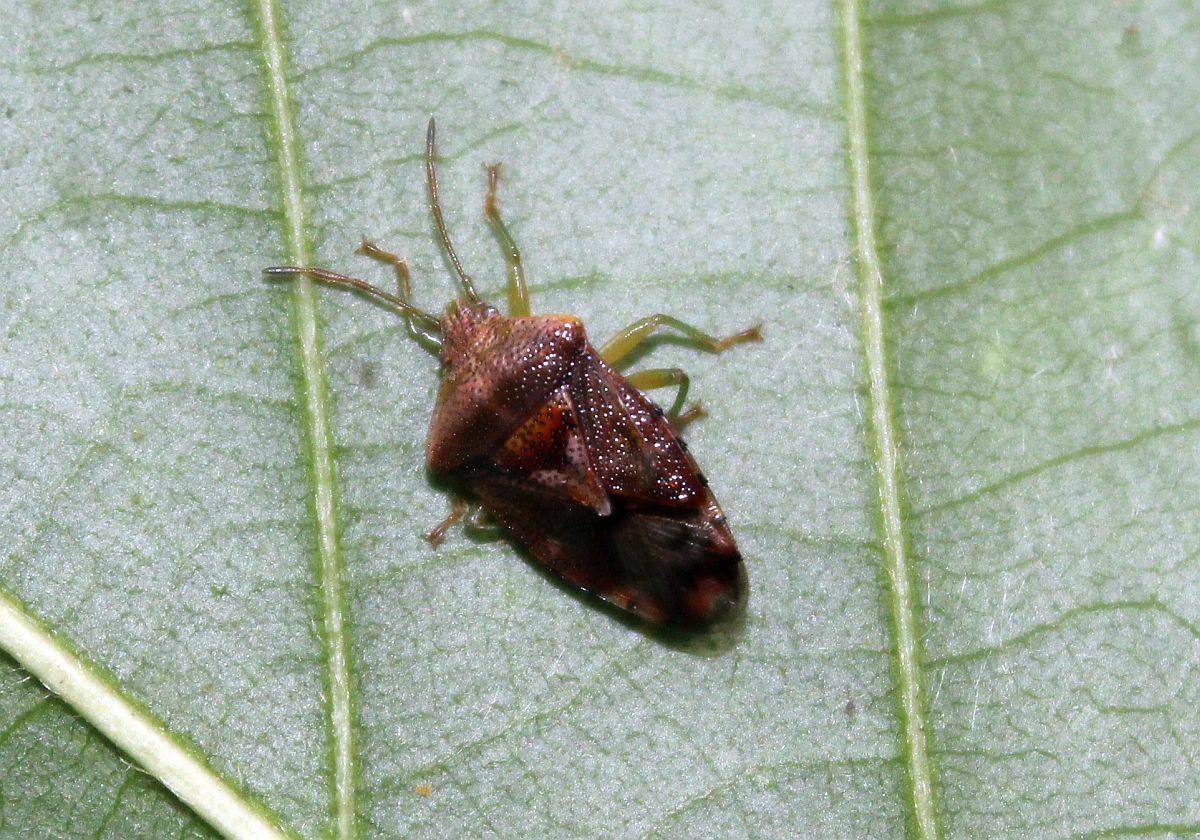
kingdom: Animalia
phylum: Arthropoda
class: Insecta
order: Hemiptera
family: Acanthosomatidae
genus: Elasmucha
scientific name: Elasmucha grisea
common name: Parent bug
